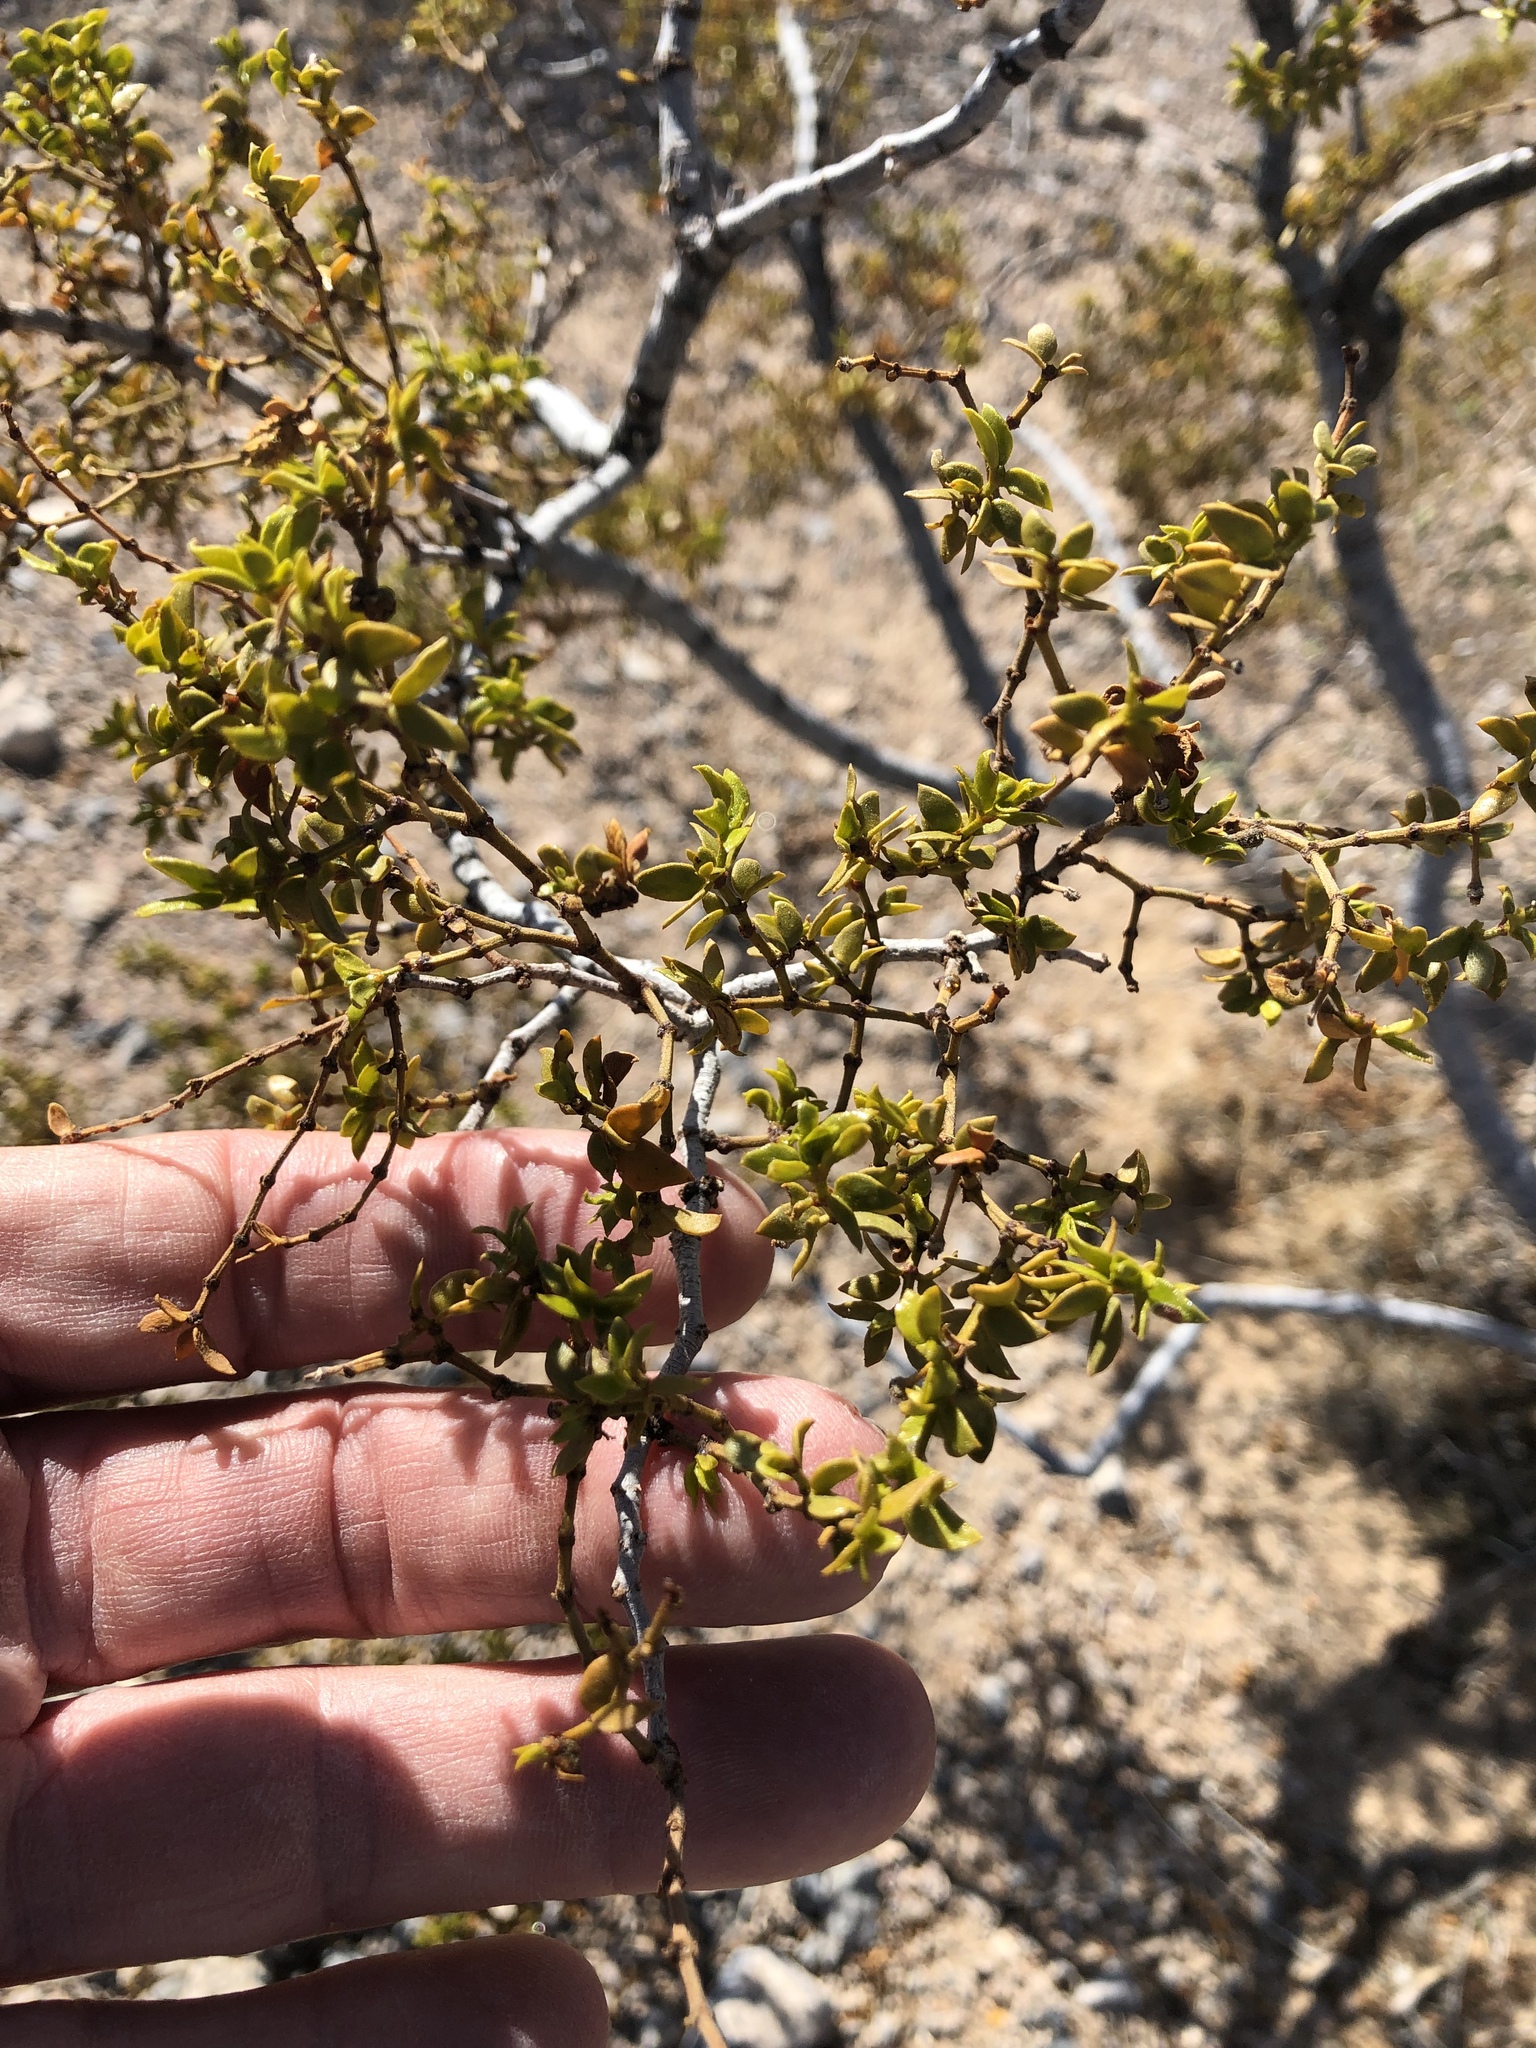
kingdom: Plantae
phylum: Tracheophyta
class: Magnoliopsida
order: Zygophyllales
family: Zygophyllaceae
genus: Larrea
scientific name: Larrea tridentata
